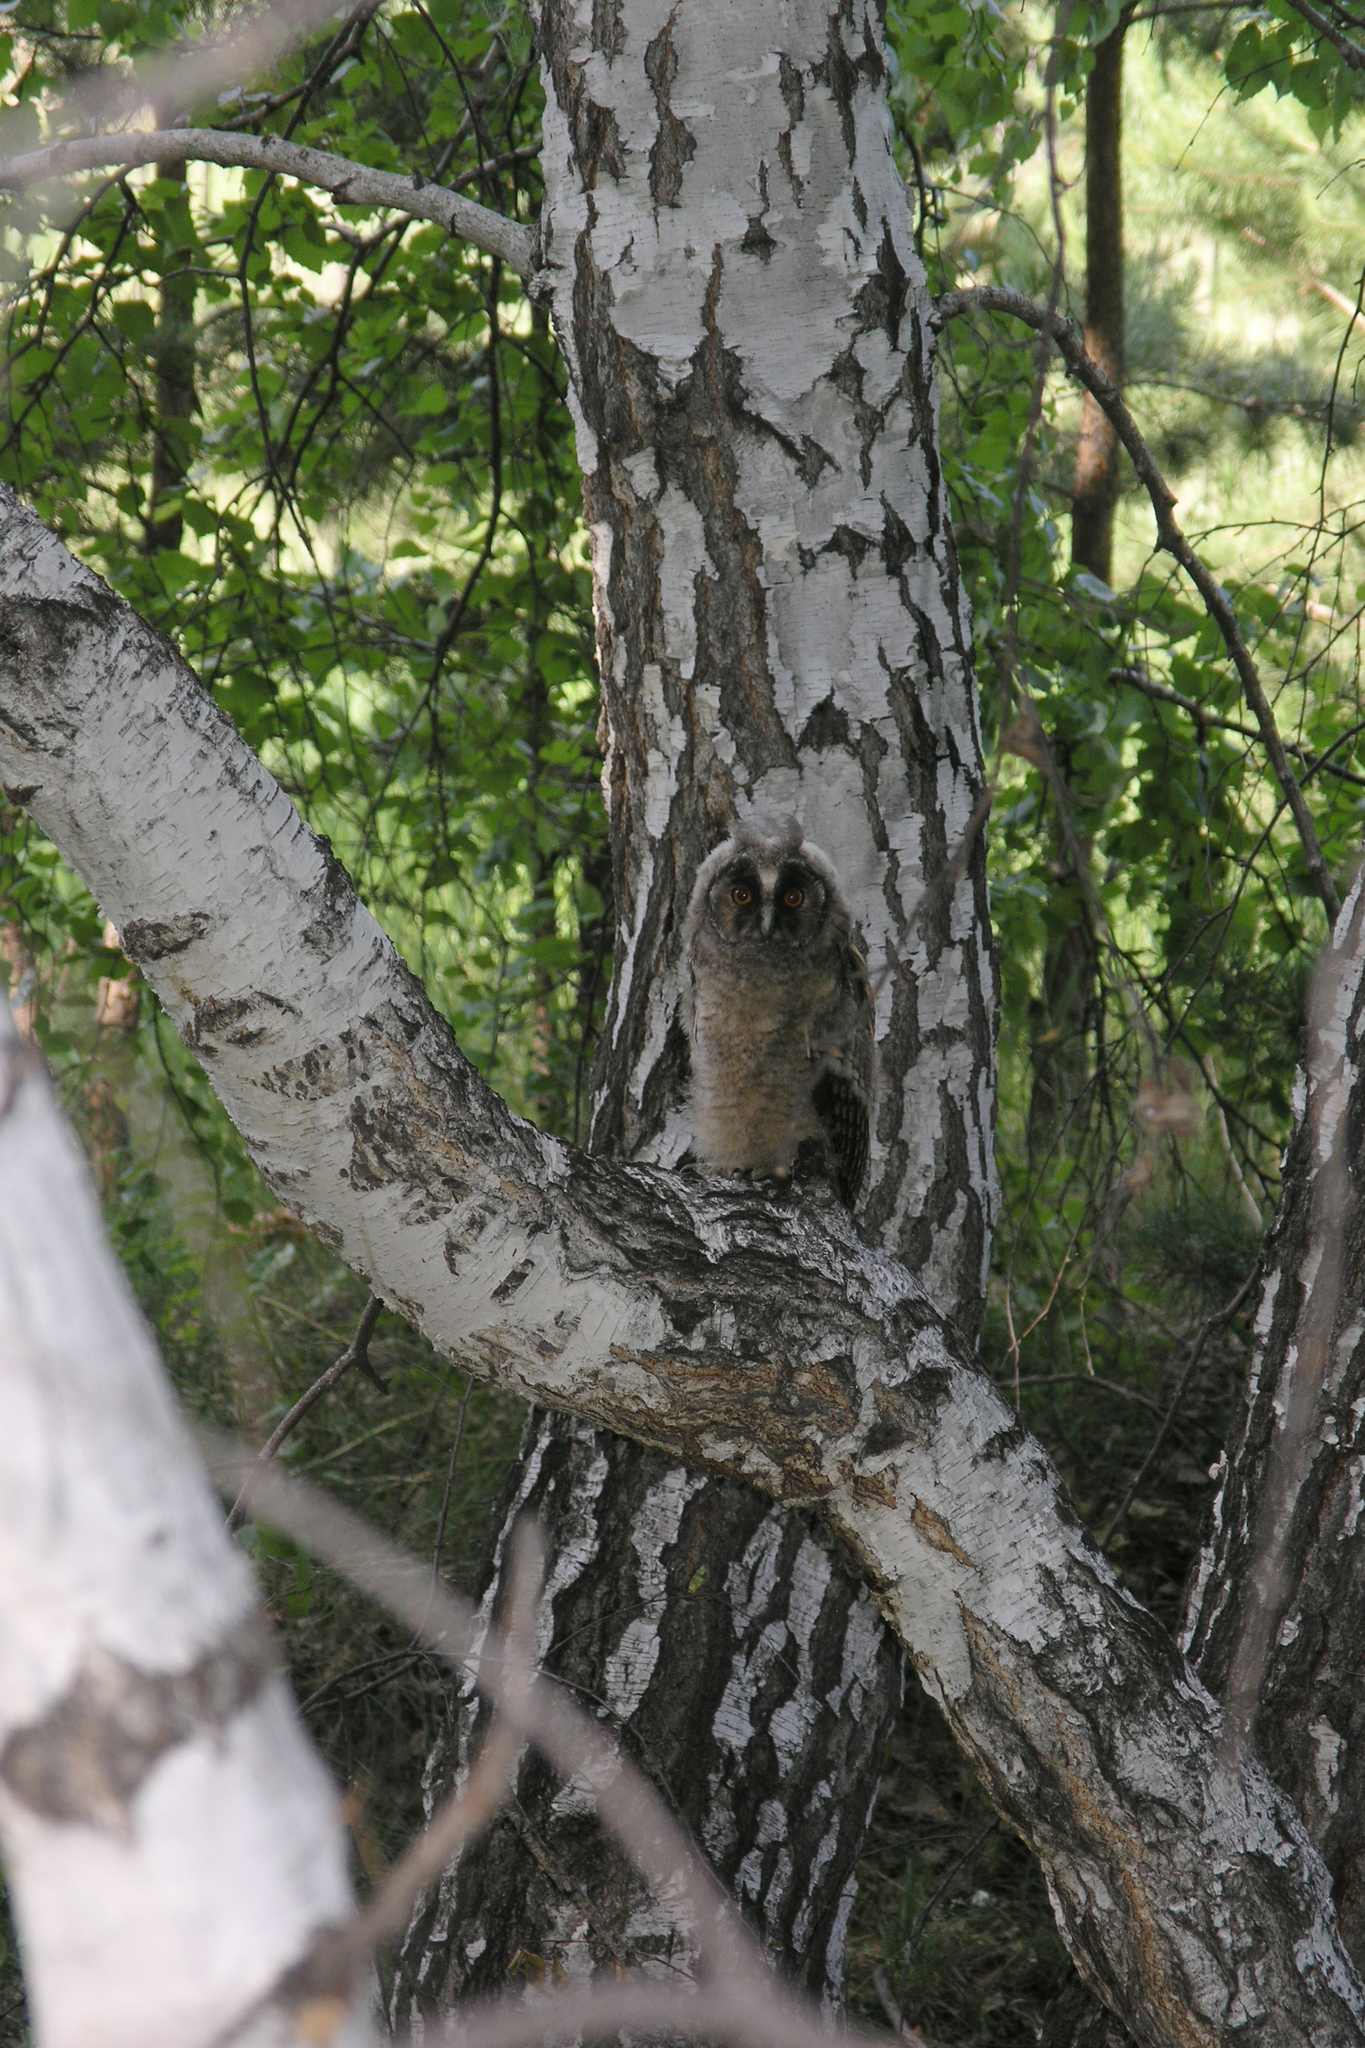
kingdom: Animalia
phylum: Chordata
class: Aves
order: Strigiformes
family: Strigidae
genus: Asio
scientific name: Asio otus
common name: Long-eared owl
